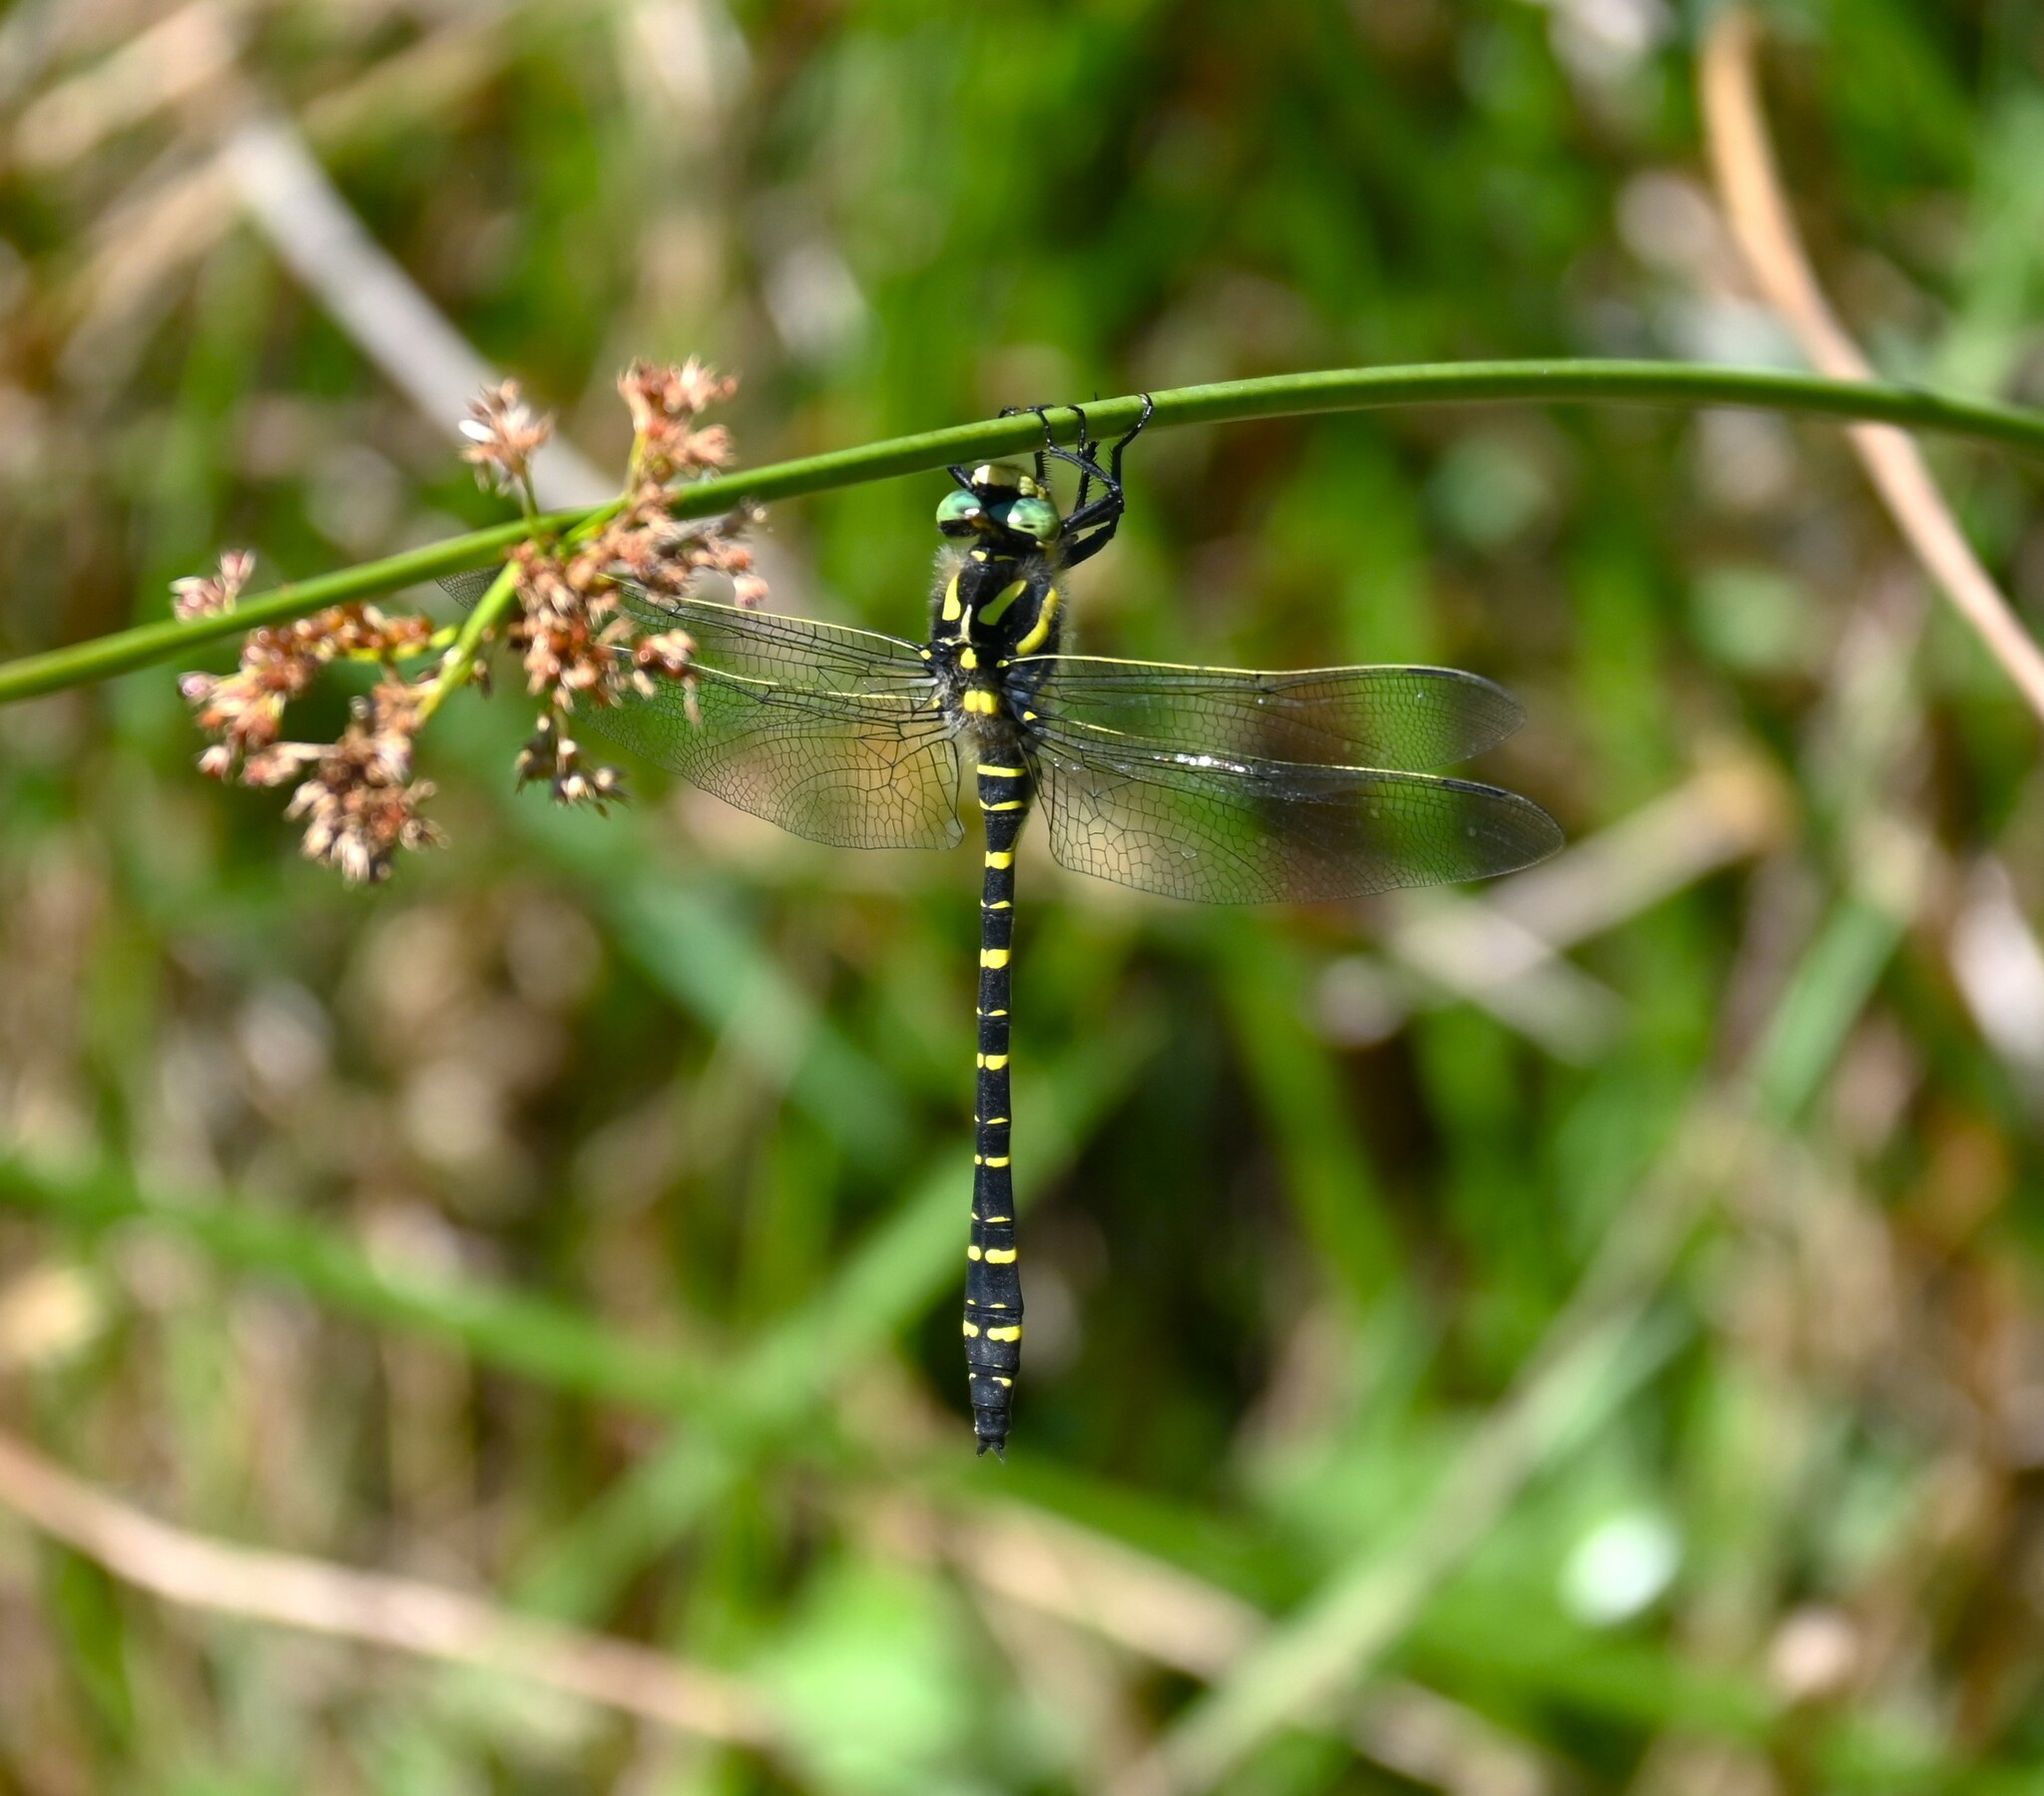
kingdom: Animalia
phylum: Arthropoda
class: Insecta
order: Odonata
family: Cordulegastridae
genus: Cordulegaster
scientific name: Cordulegaster boltonii
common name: Golden-ringed dragonfly
